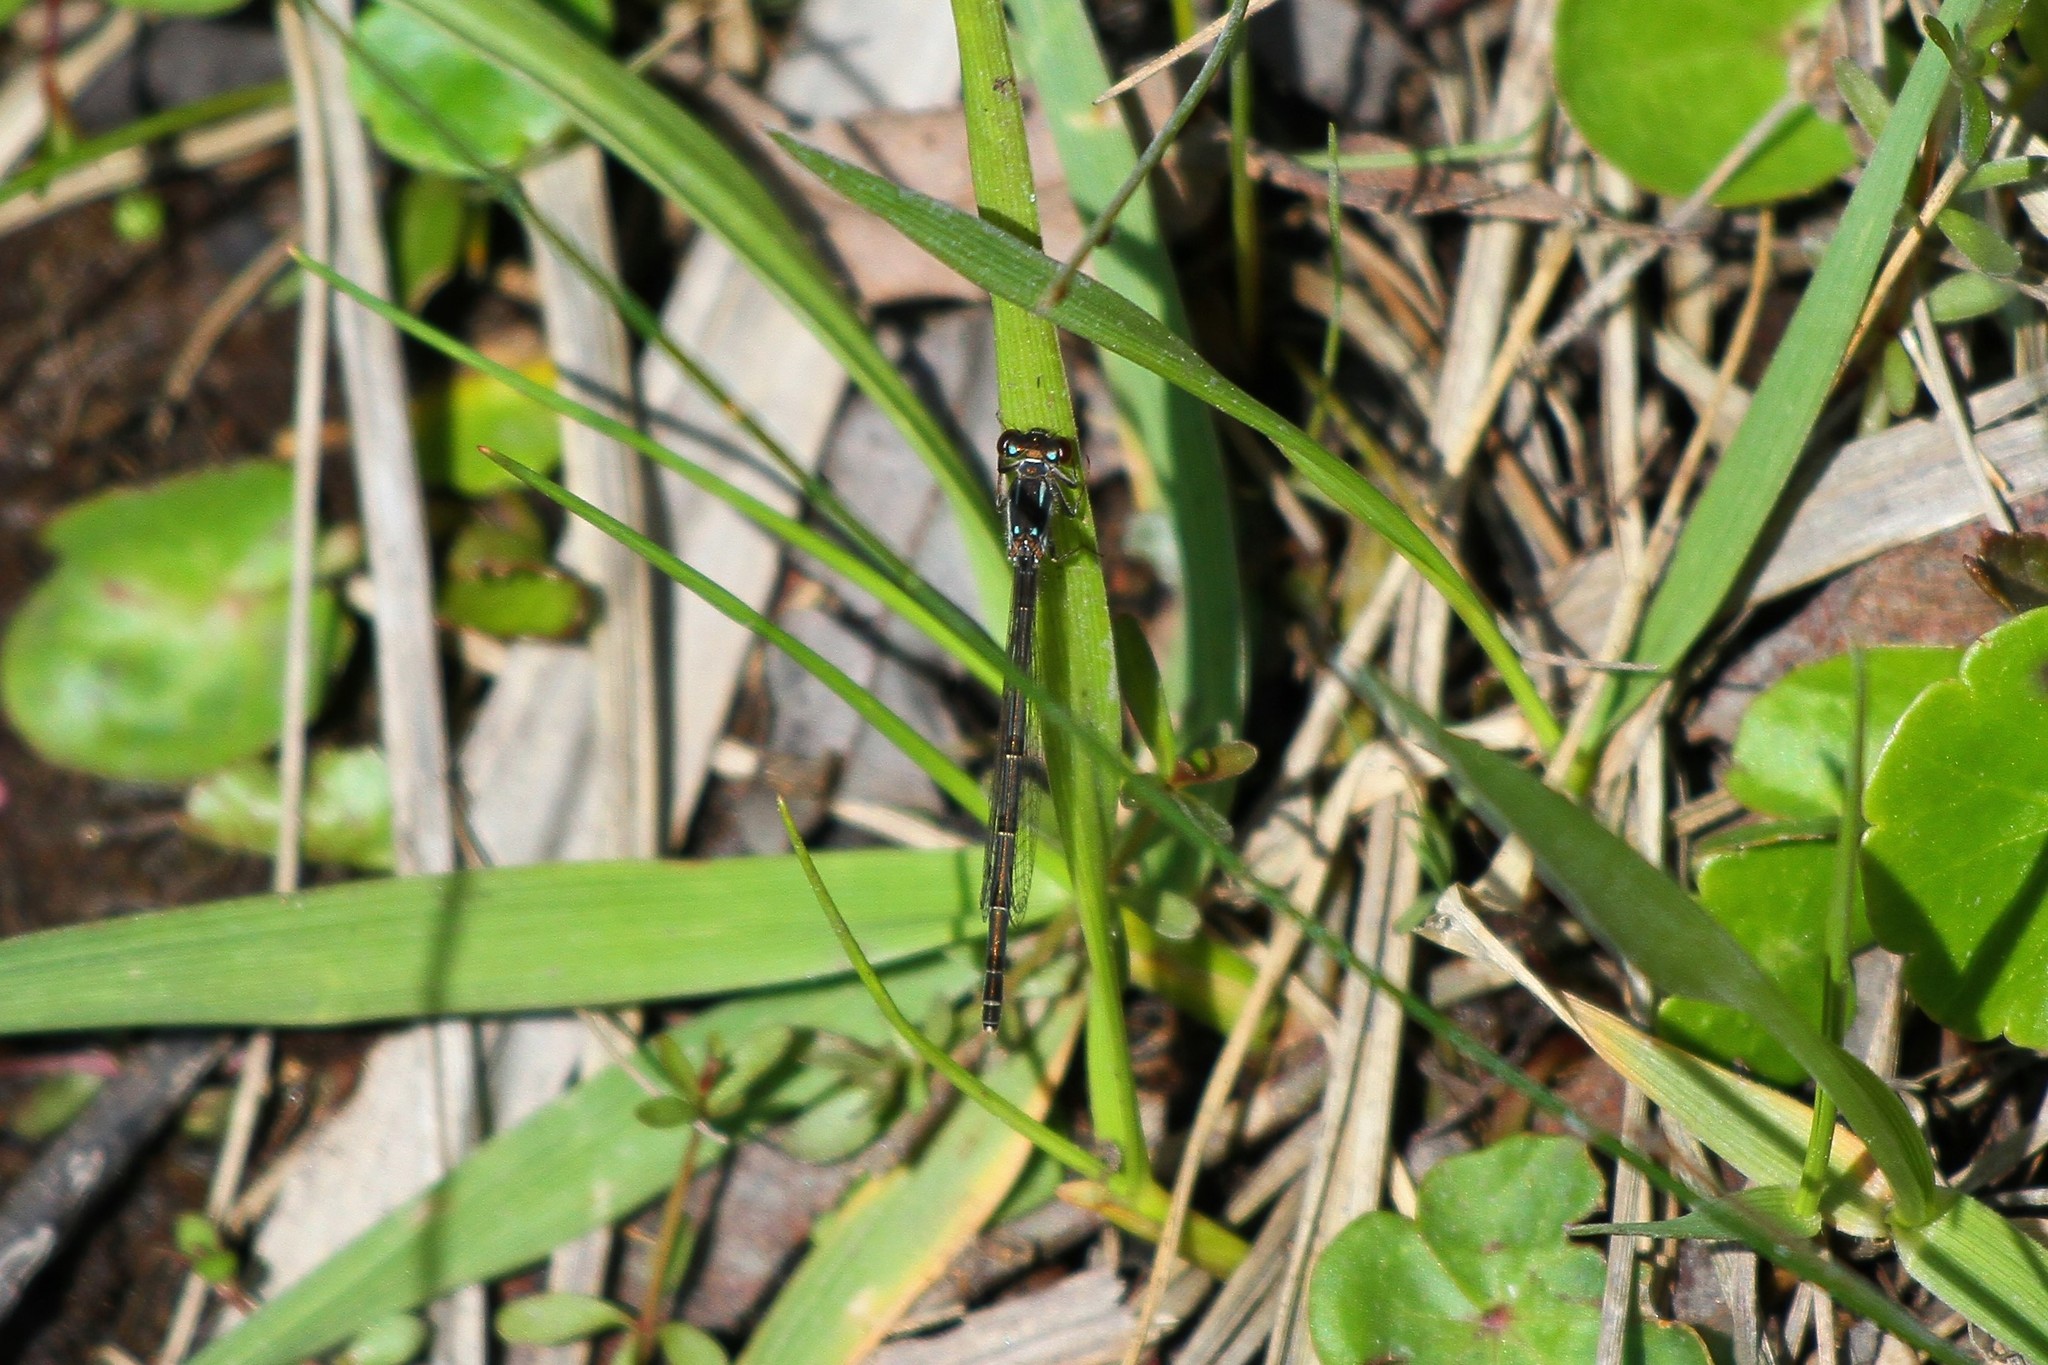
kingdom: Animalia
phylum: Arthropoda
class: Insecta
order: Odonata
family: Coenagrionidae
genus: Ischnura
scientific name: Ischnura posita
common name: Fragile forktail
